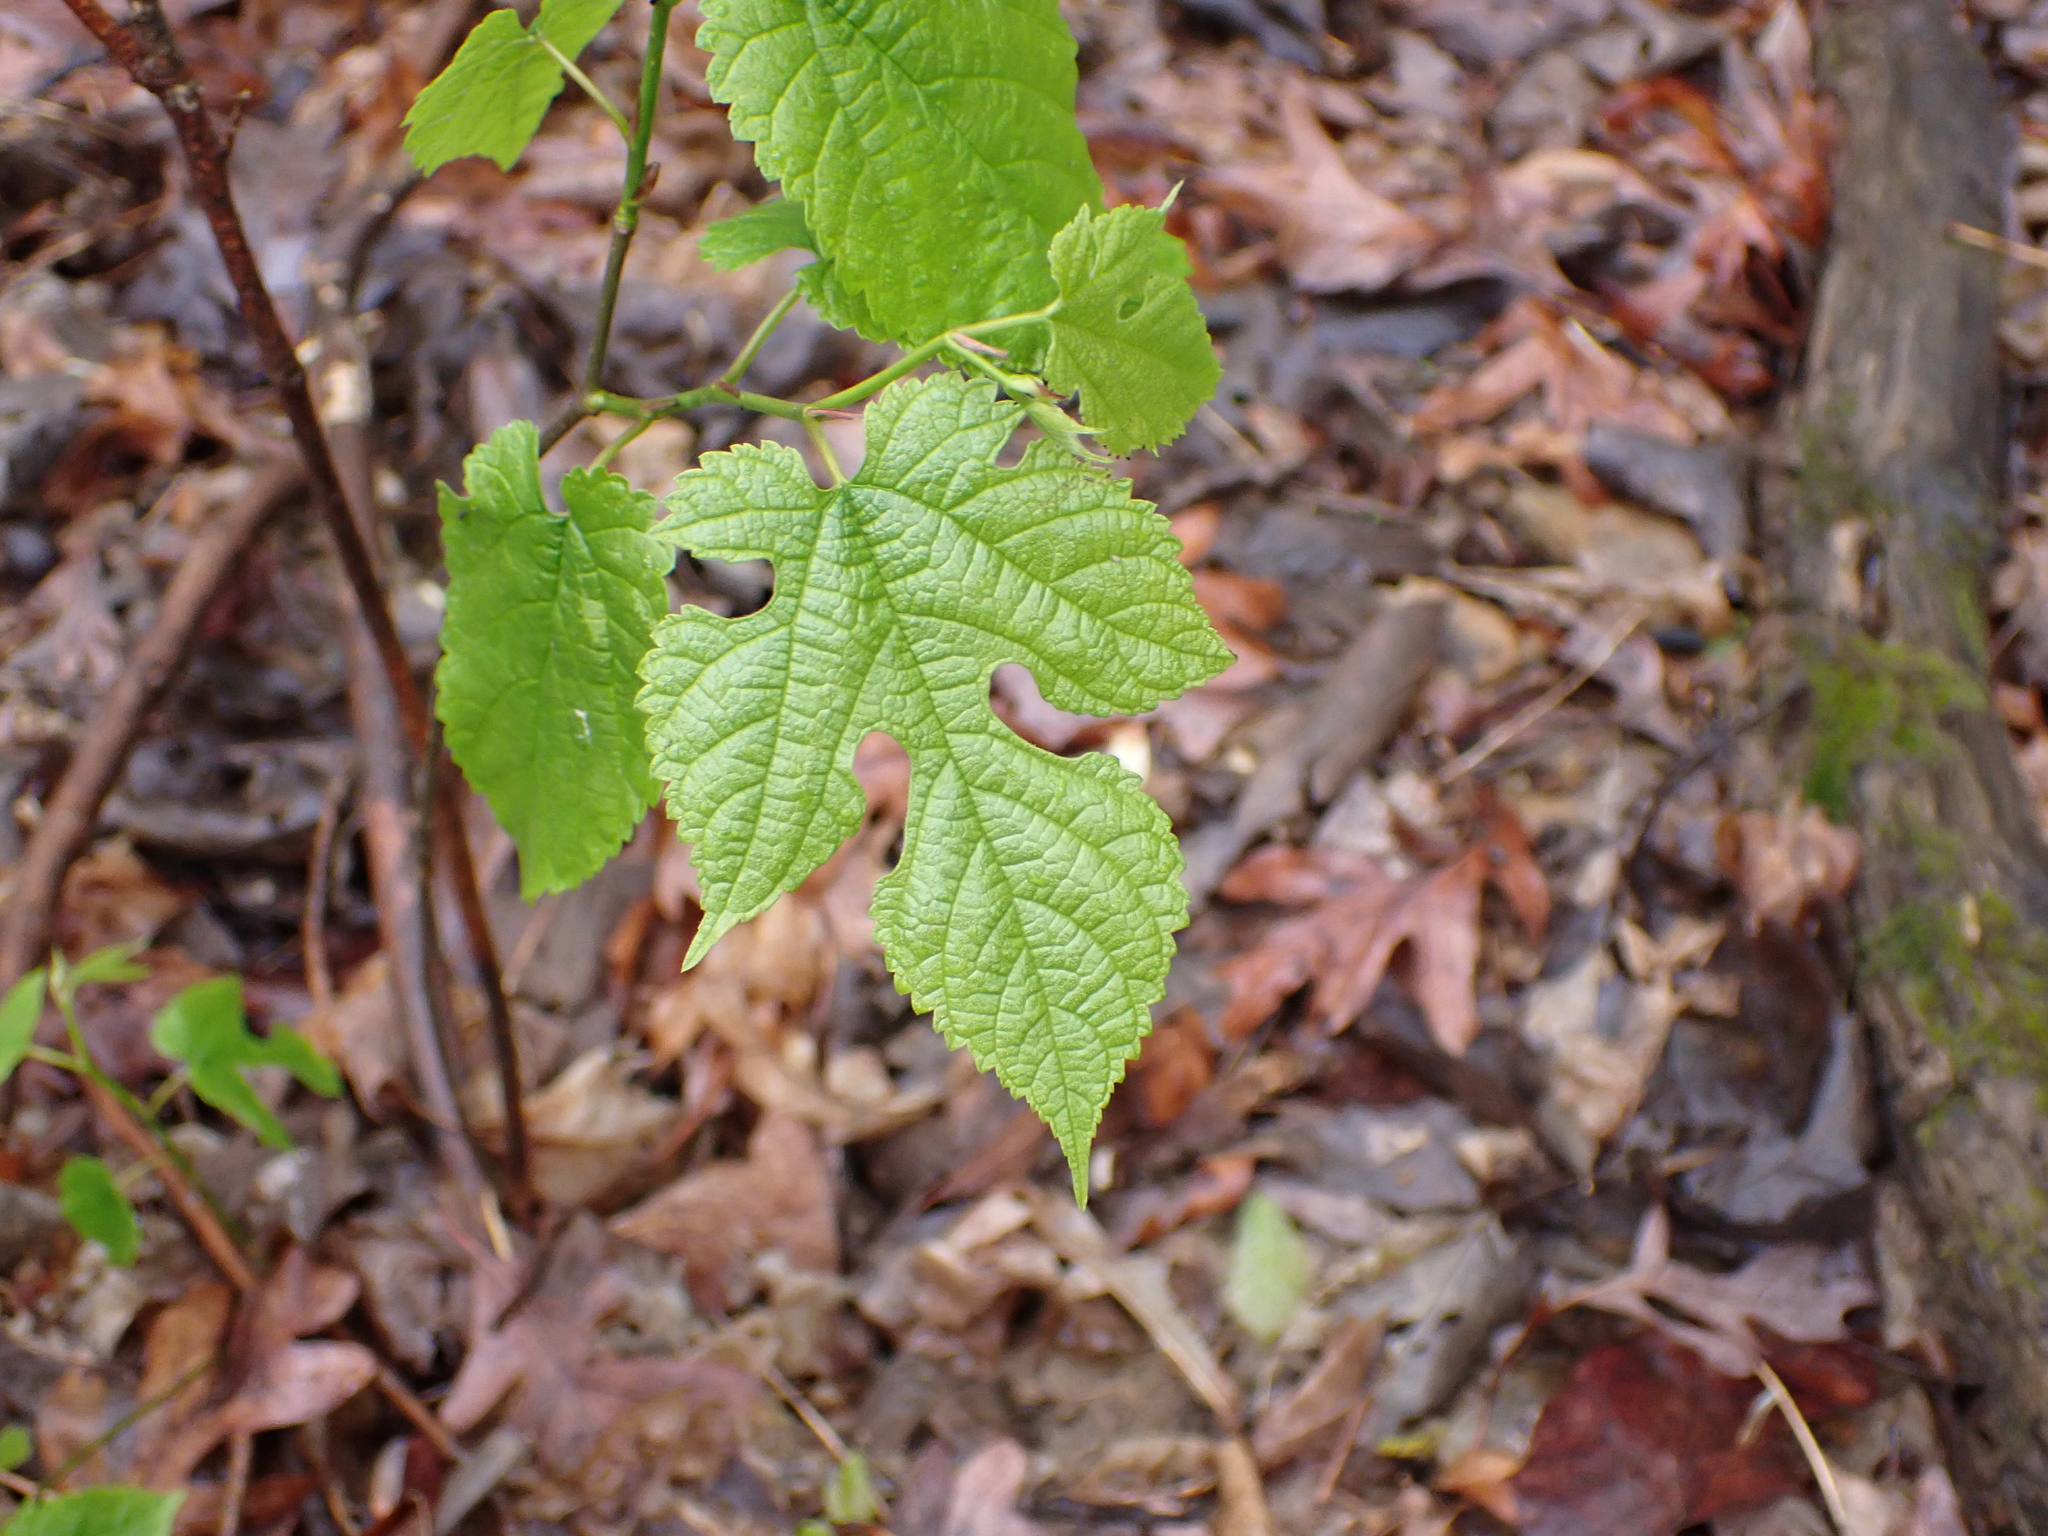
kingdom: Plantae
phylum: Tracheophyta
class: Magnoliopsida
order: Rosales
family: Moraceae
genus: Morus
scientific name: Morus alba
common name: White mulberry
